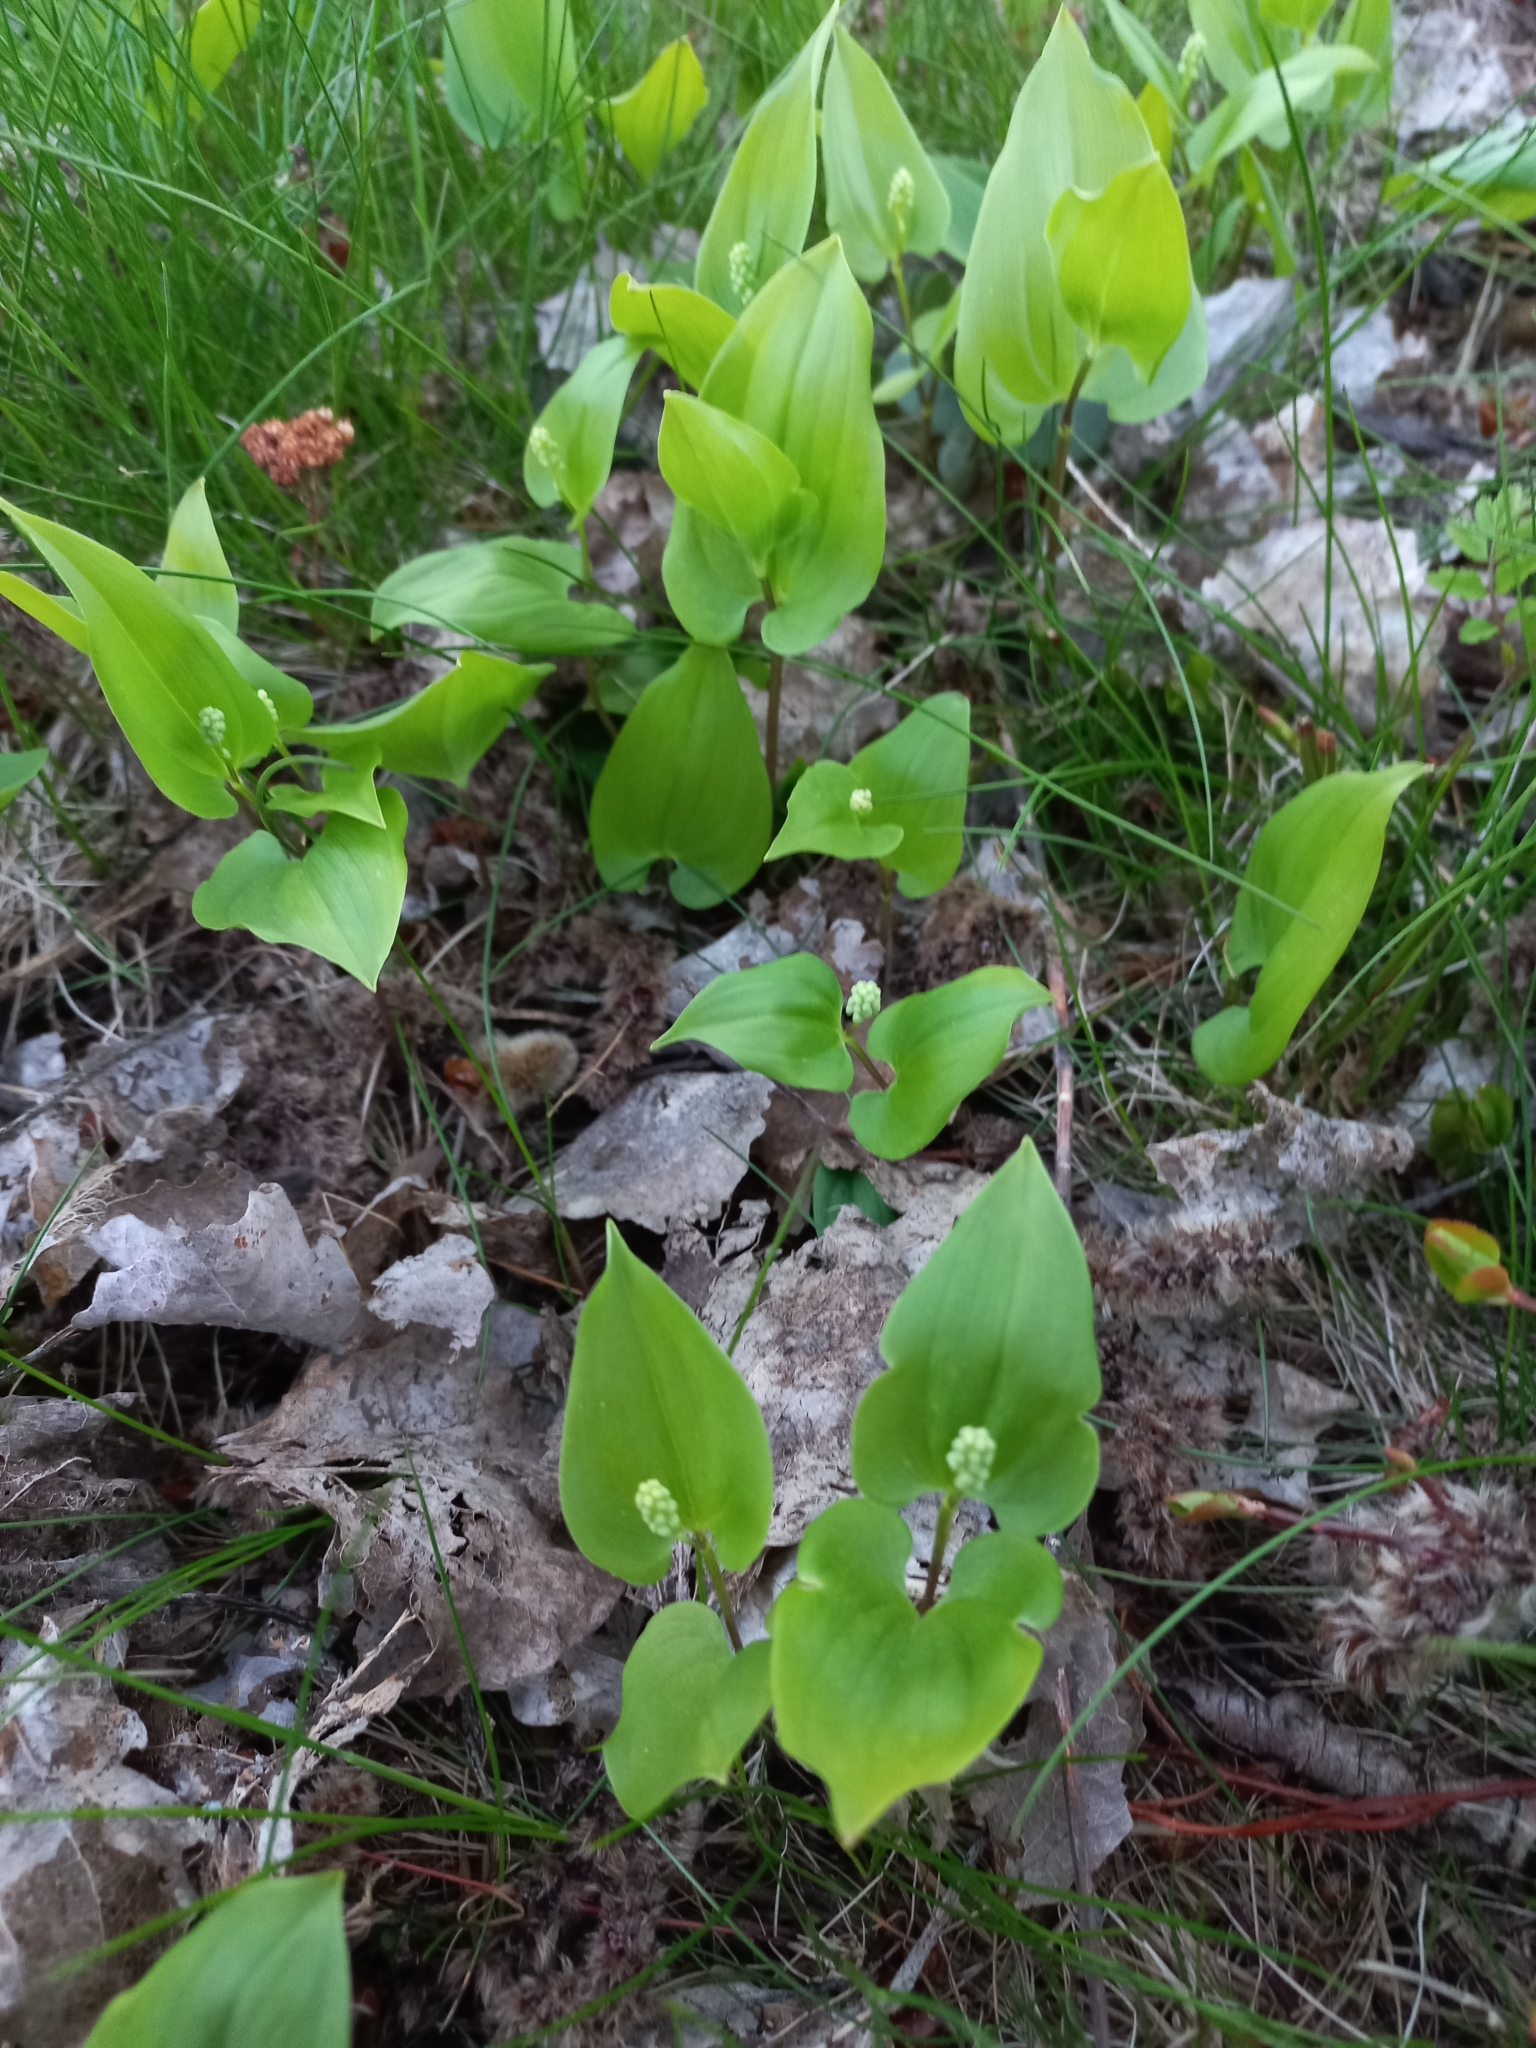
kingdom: Plantae
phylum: Tracheophyta
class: Liliopsida
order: Asparagales
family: Asparagaceae
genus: Maianthemum
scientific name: Maianthemum bifolium
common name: May lily
